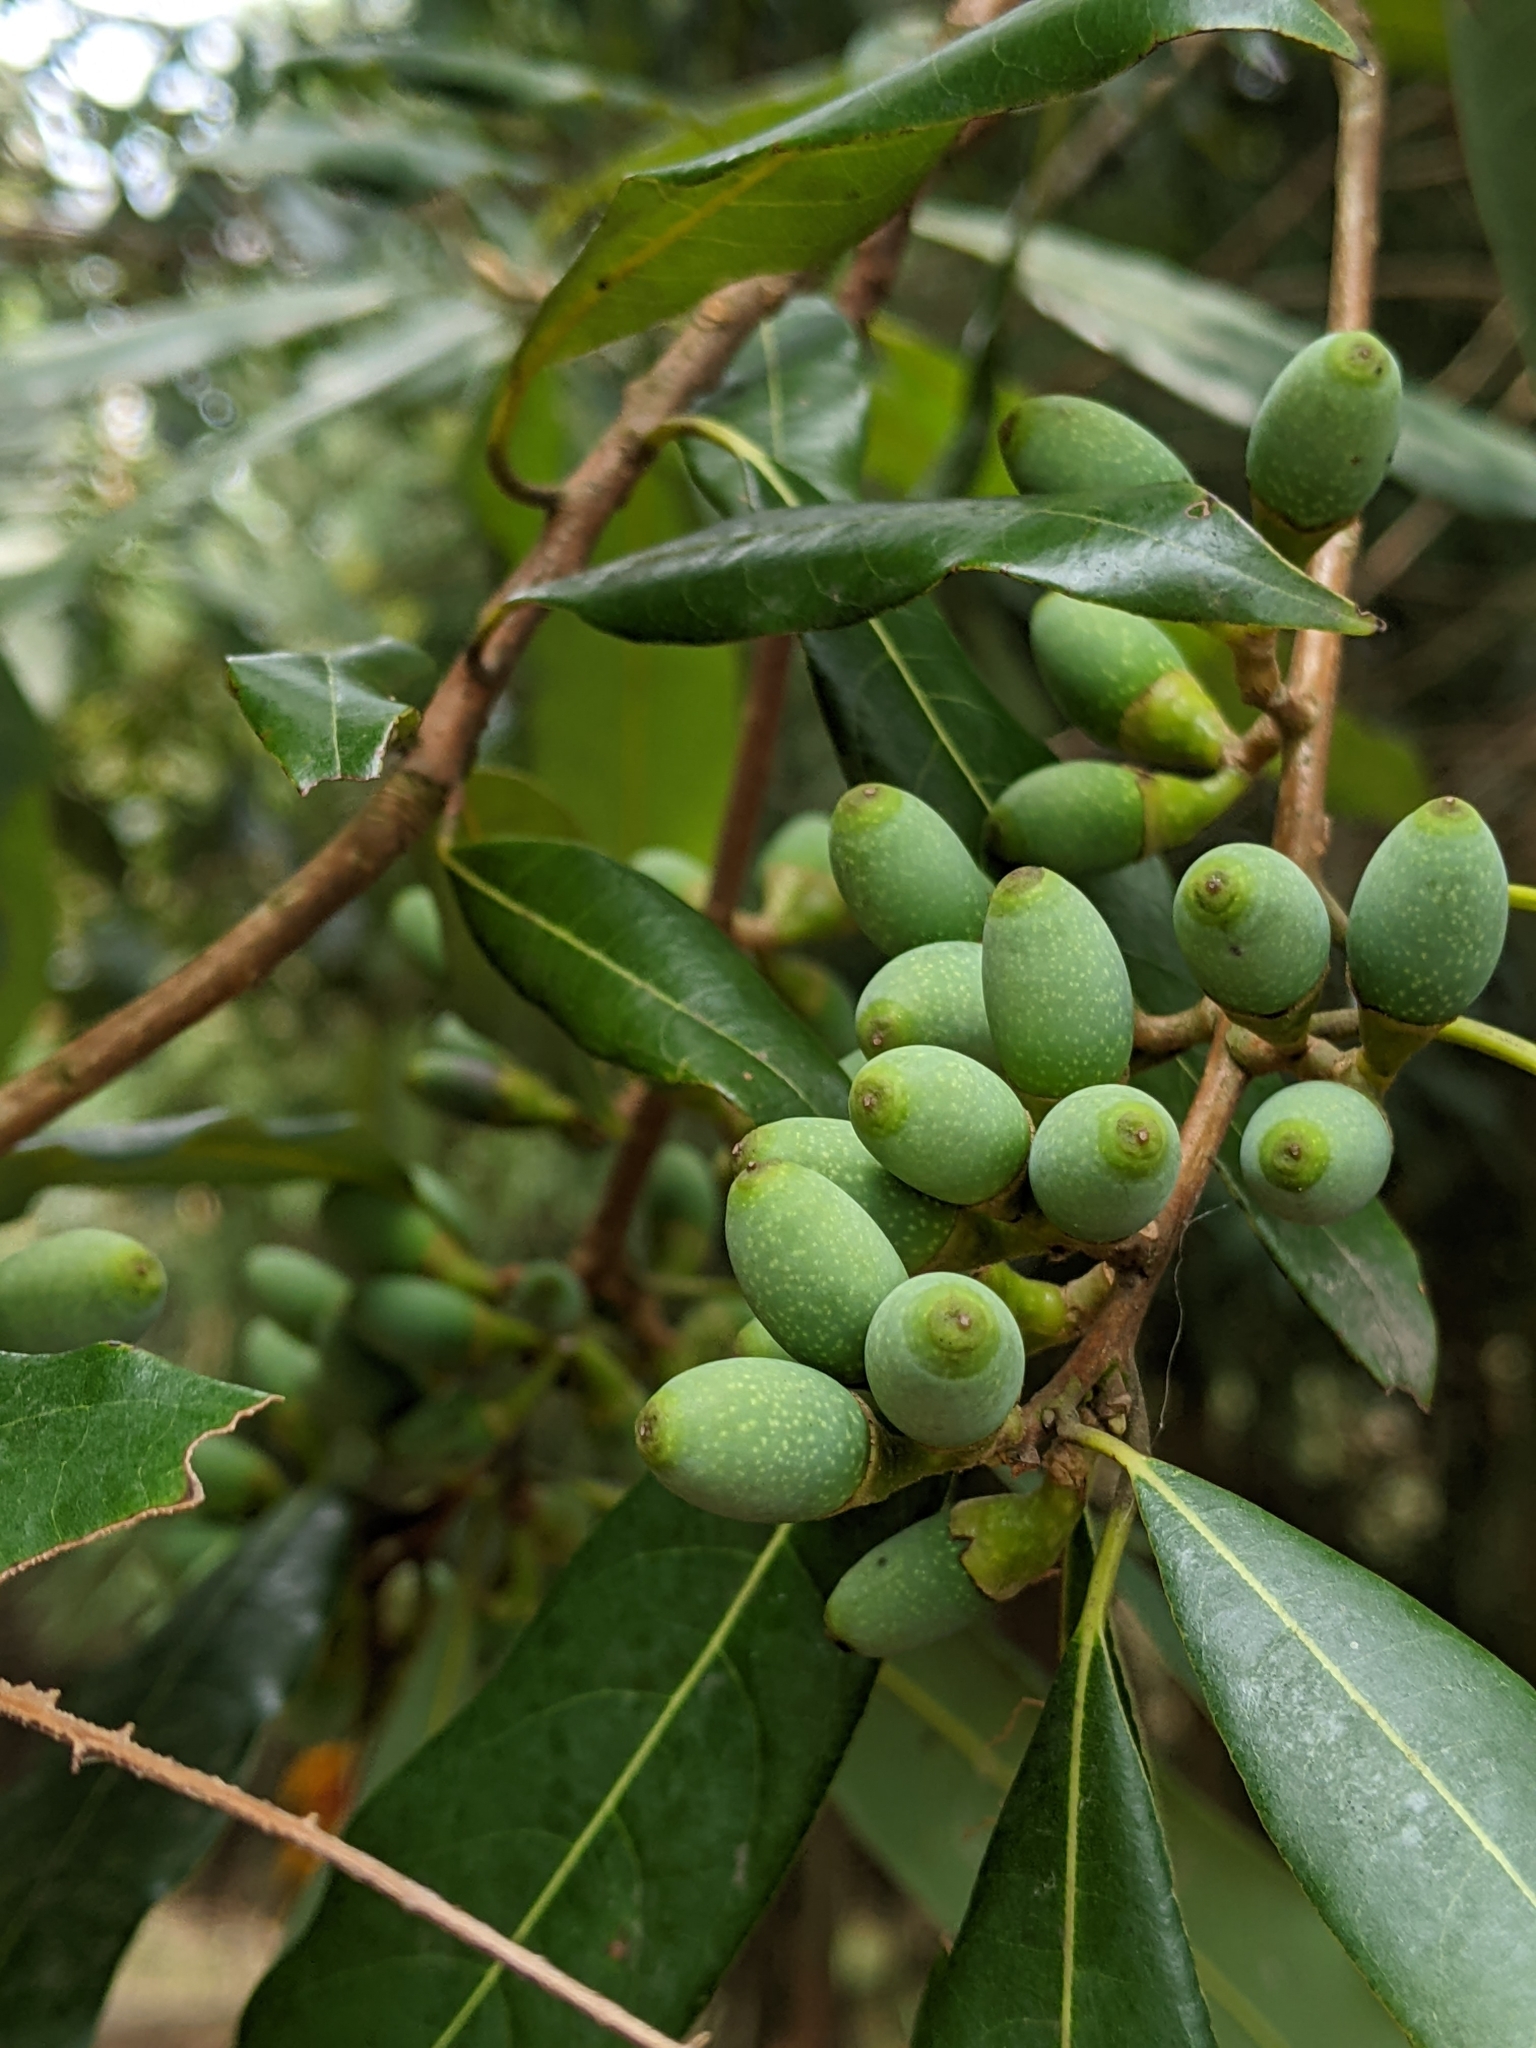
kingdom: Plantae
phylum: Tracheophyta
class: Magnoliopsida
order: Laurales
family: Lauraceae
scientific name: Lauraceae
